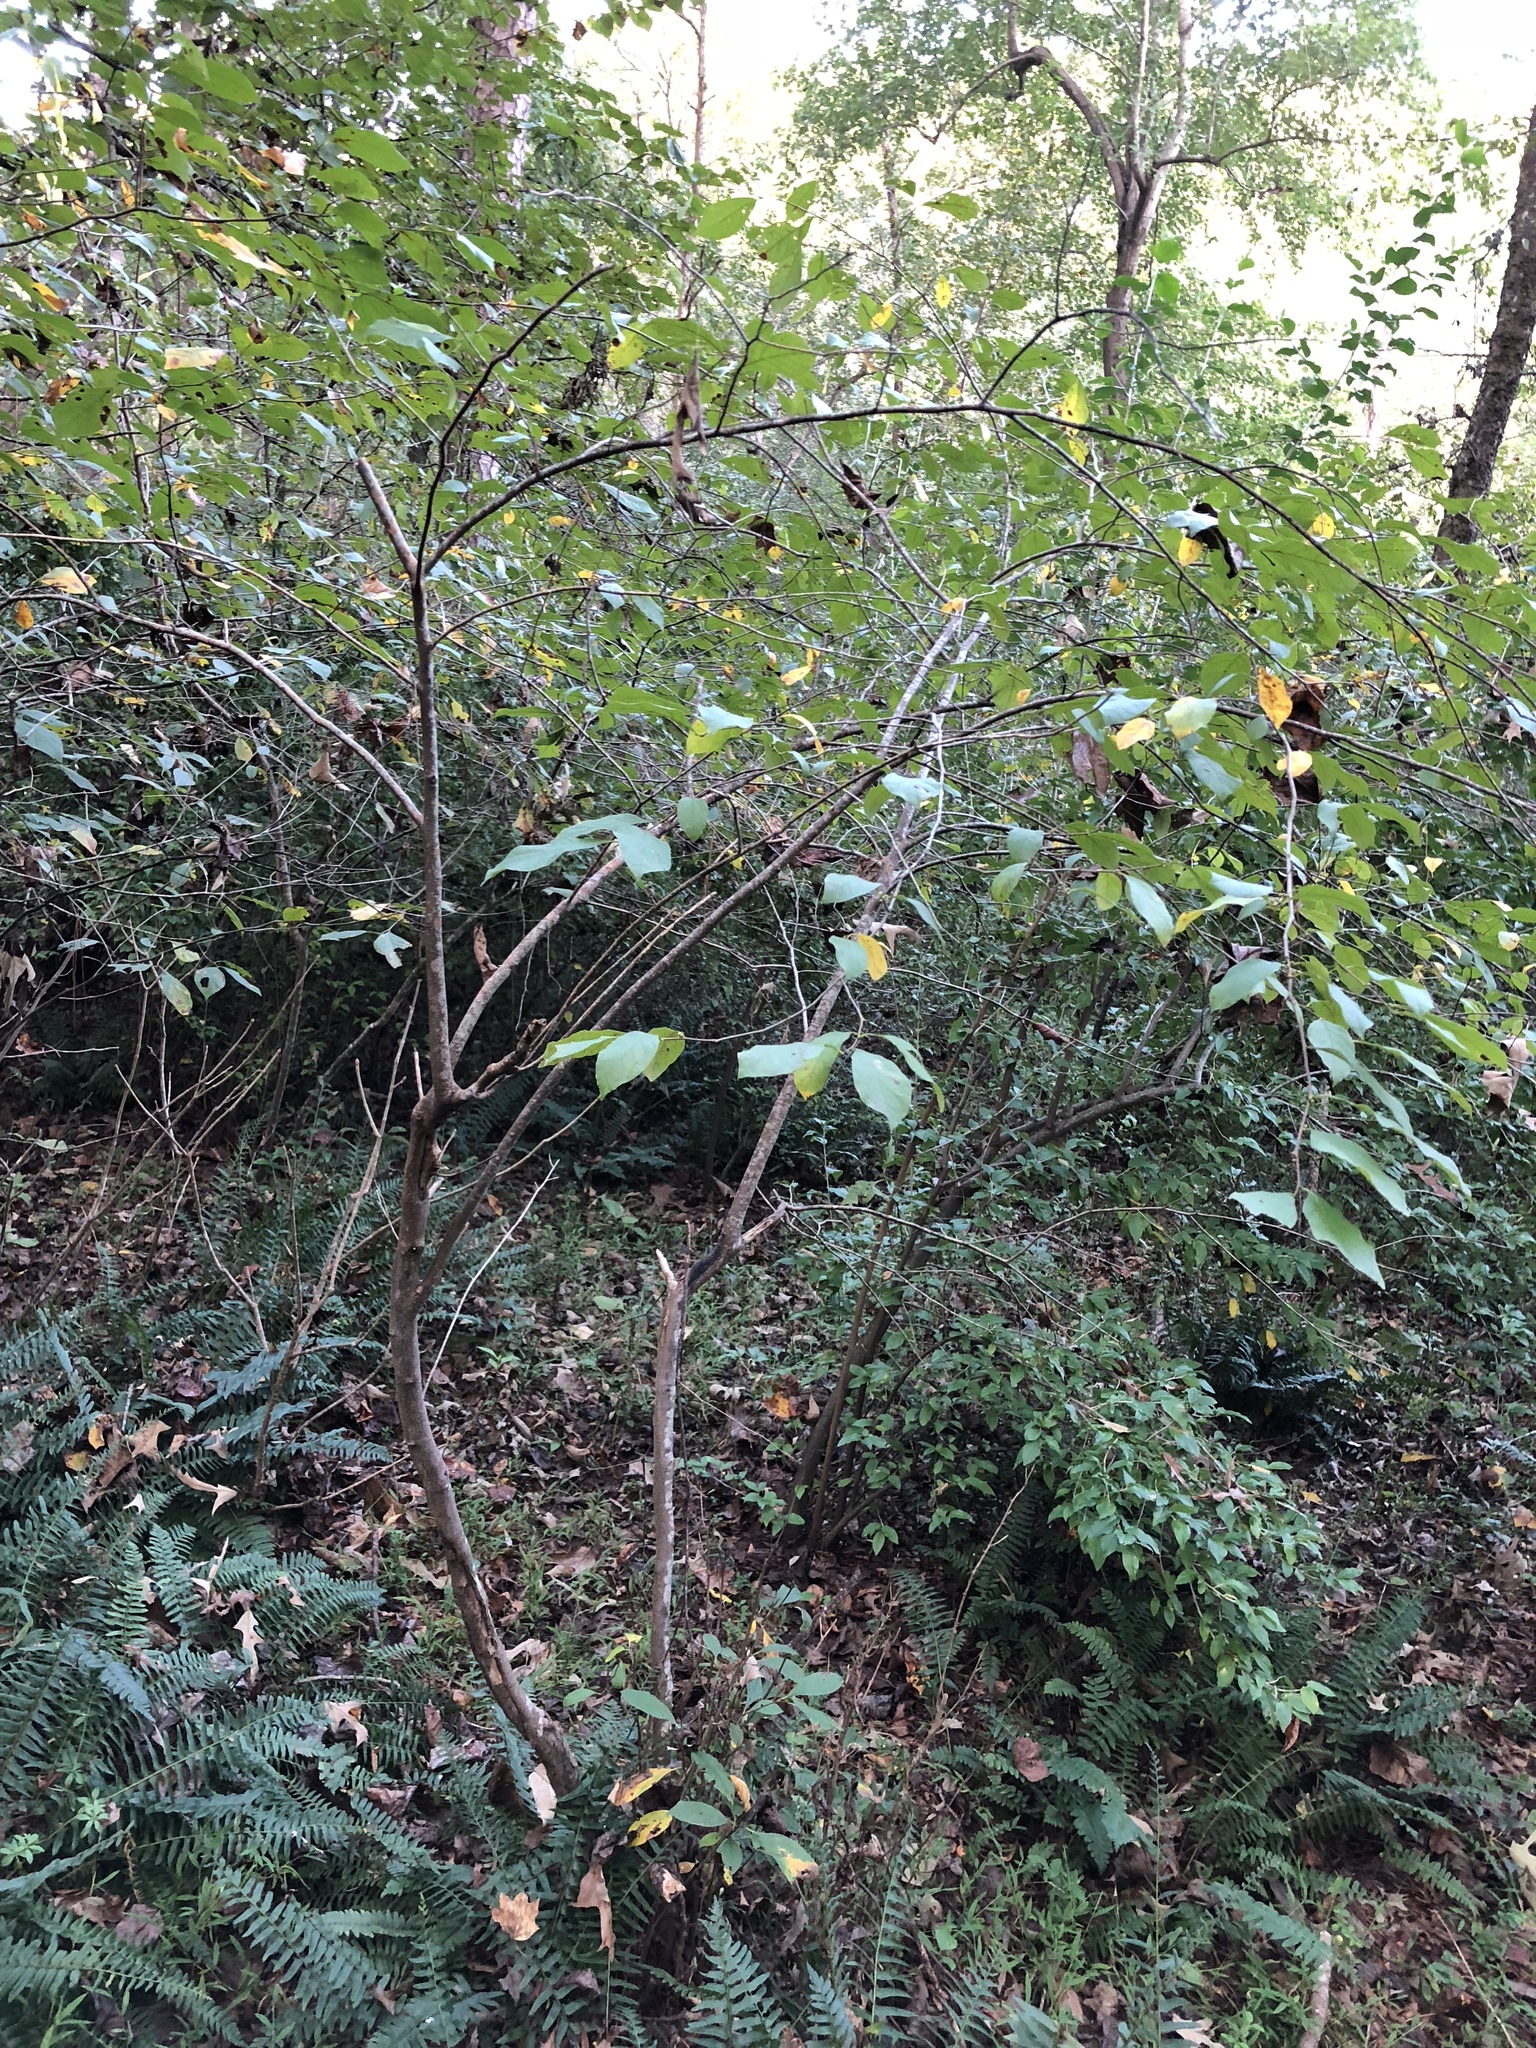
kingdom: Plantae
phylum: Tracheophyta
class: Magnoliopsida
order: Laurales
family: Lauraceae
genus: Lindera
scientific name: Lindera benzoin
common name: Spicebush
